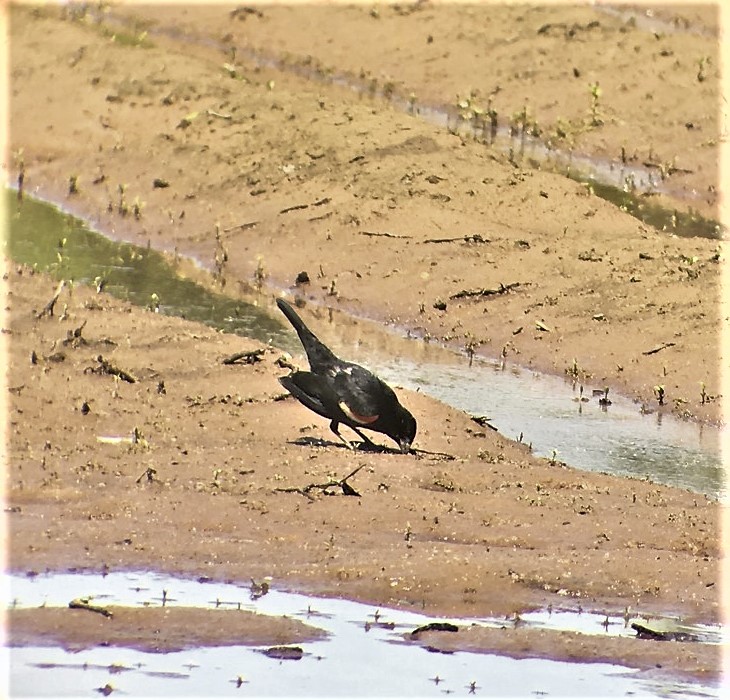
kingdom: Animalia
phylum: Chordata
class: Aves
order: Passeriformes
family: Icteridae
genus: Agelaius
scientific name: Agelaius phoeniceus
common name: Red-winged blackbird
